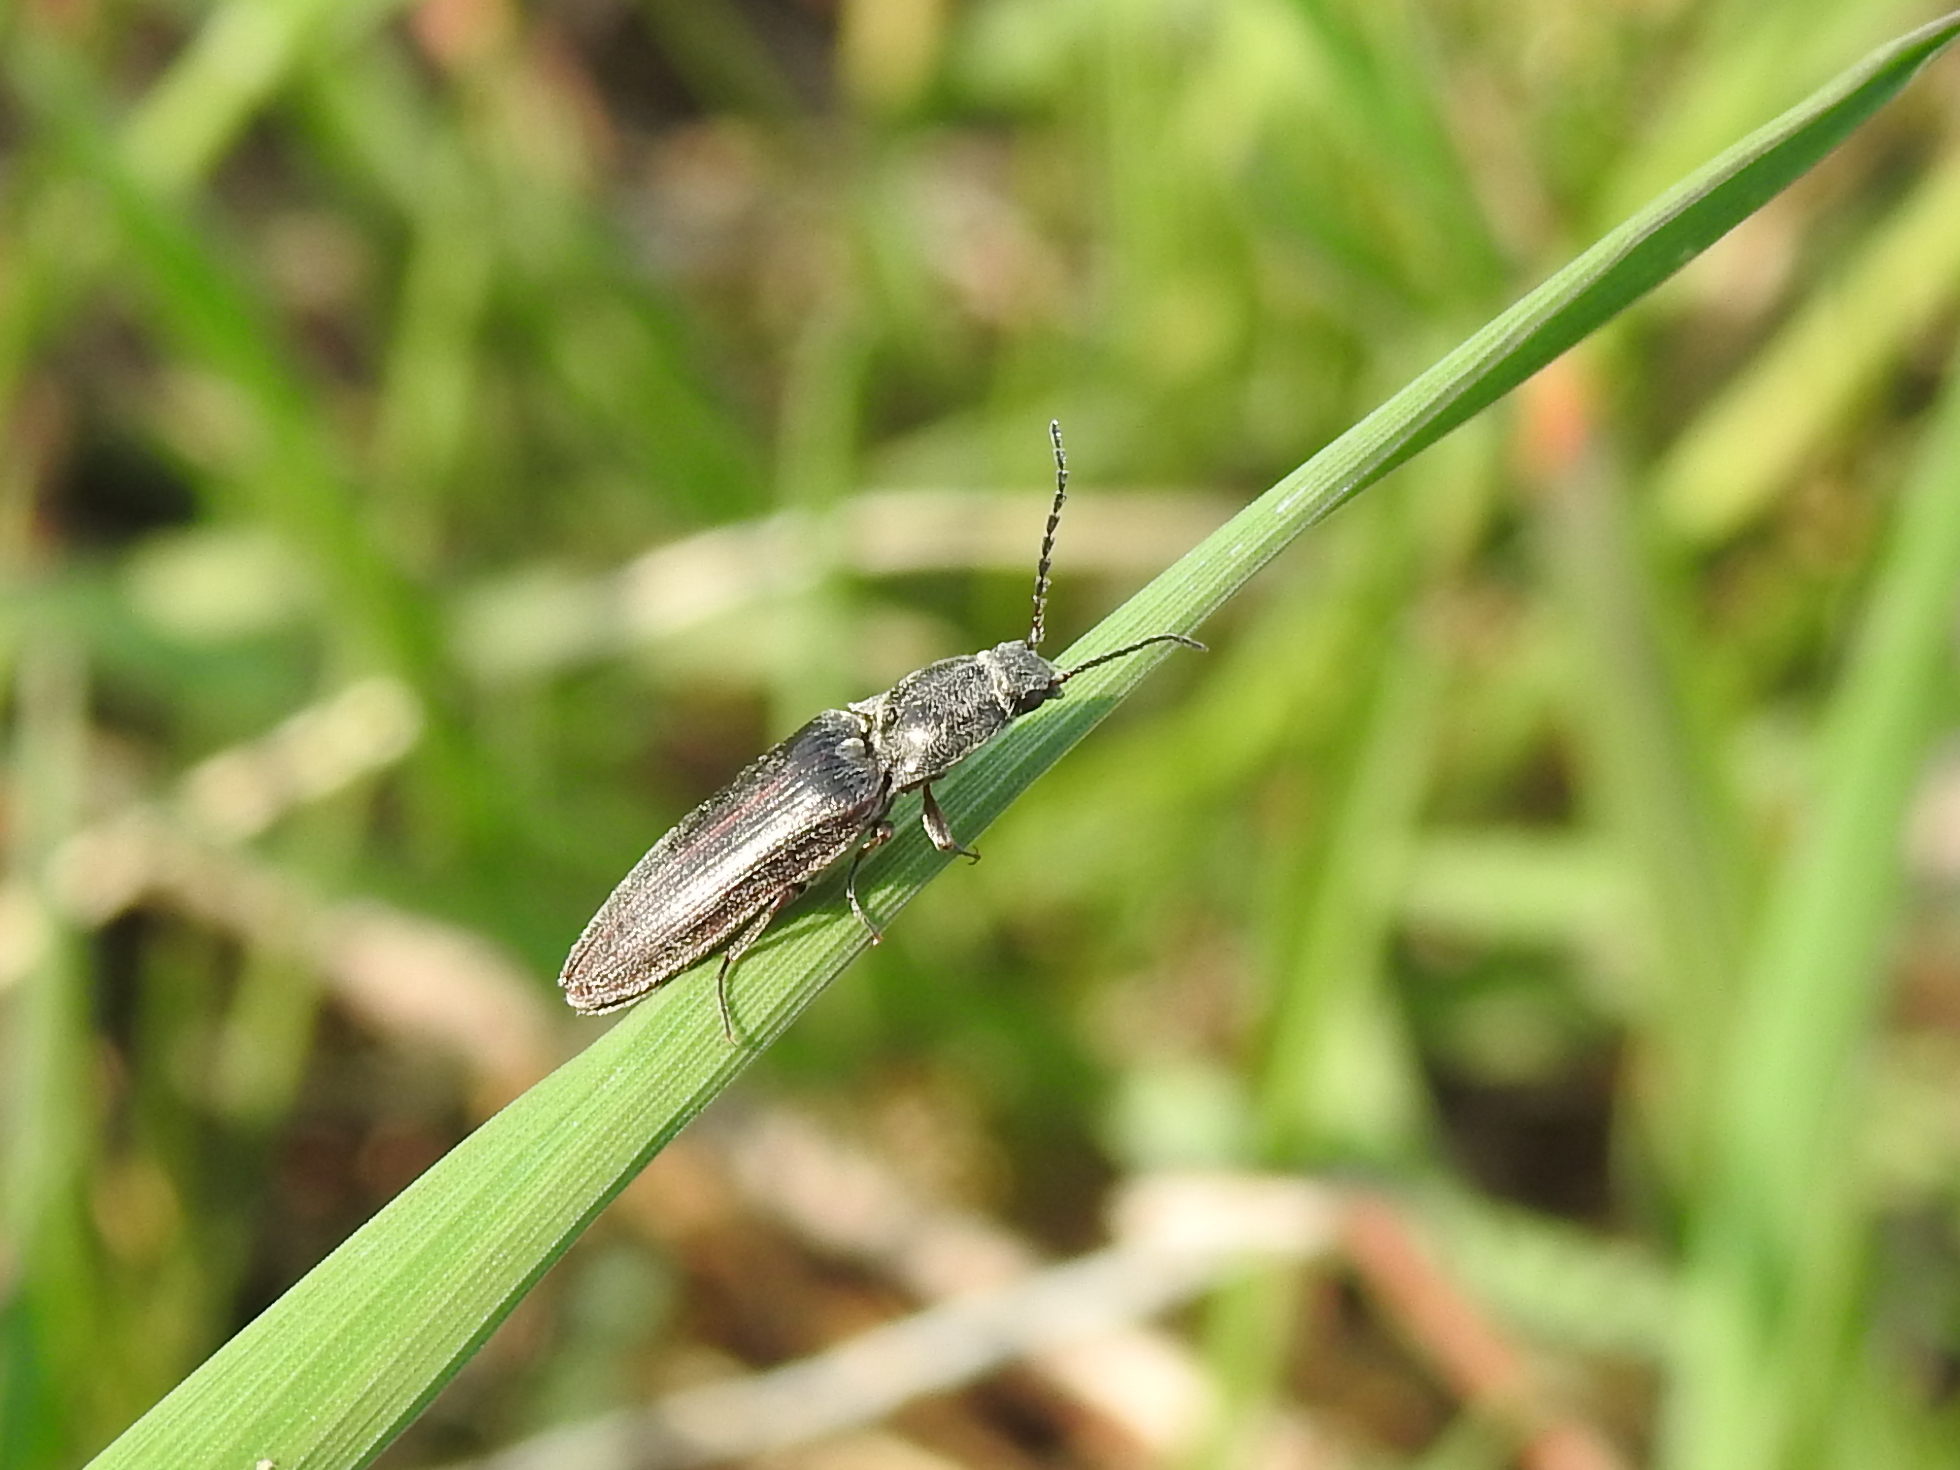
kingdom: Animalia
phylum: Arthropoda
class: Insecta
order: Coleoptera
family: Elateridae
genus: Sylvanelater
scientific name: Sylvanelater cylindriformis
